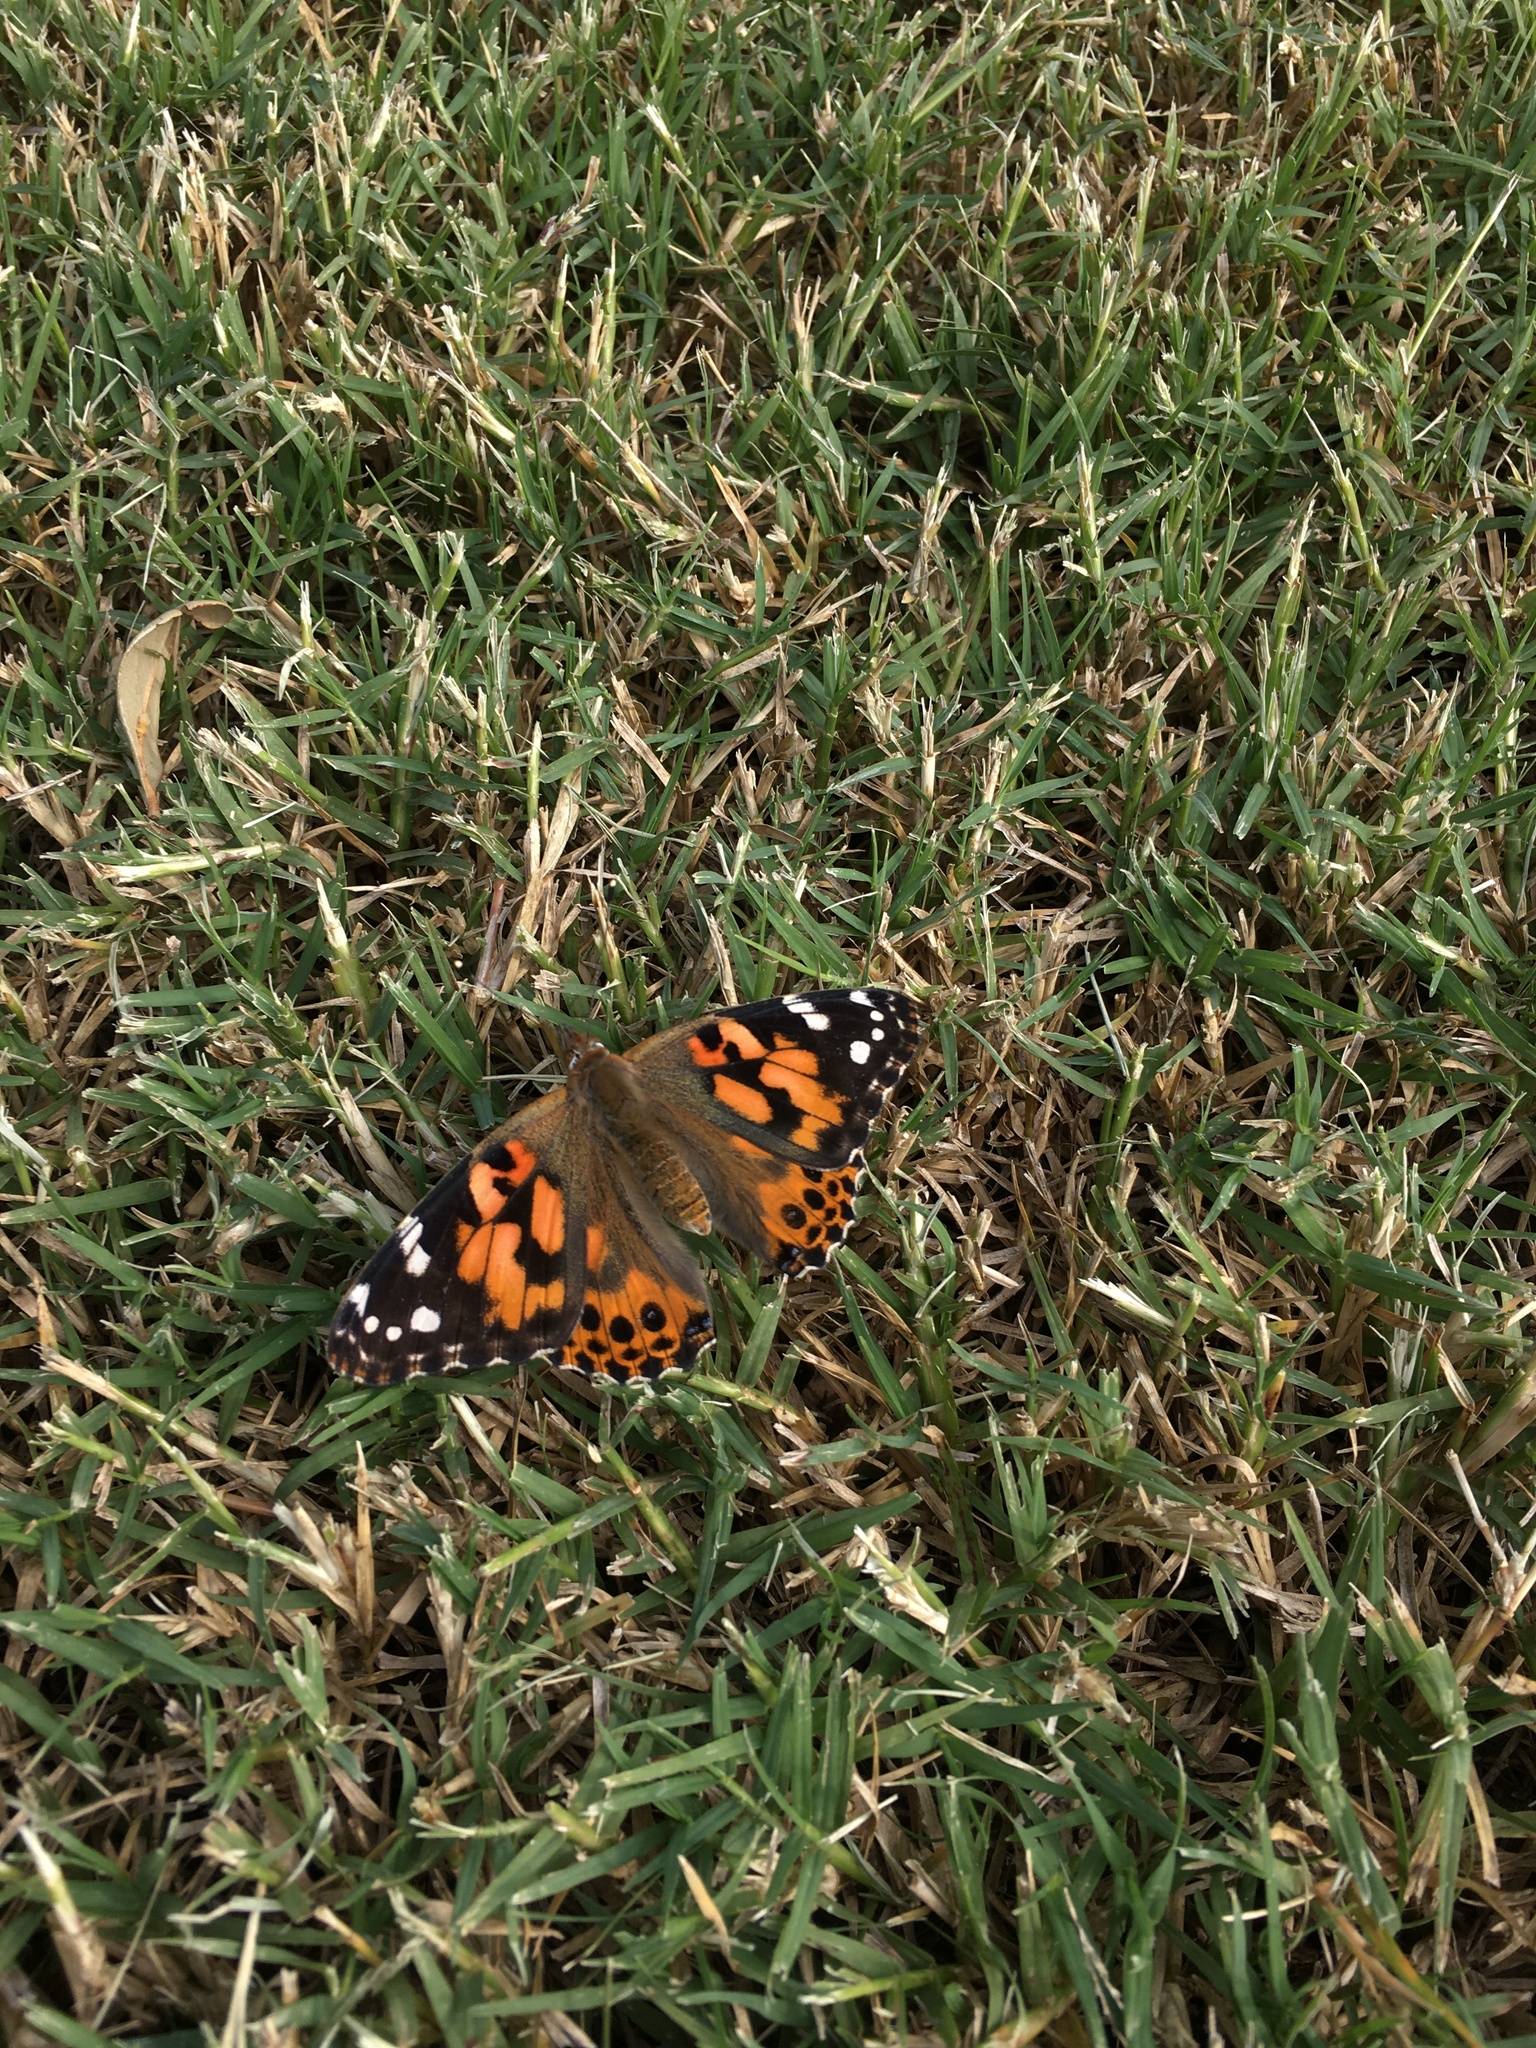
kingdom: Animalia
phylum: Arthropoda
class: Insecta
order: Lepidoptera
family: Nymphalidae
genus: Vanessa
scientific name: Vanessa cardui
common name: Painted lady
